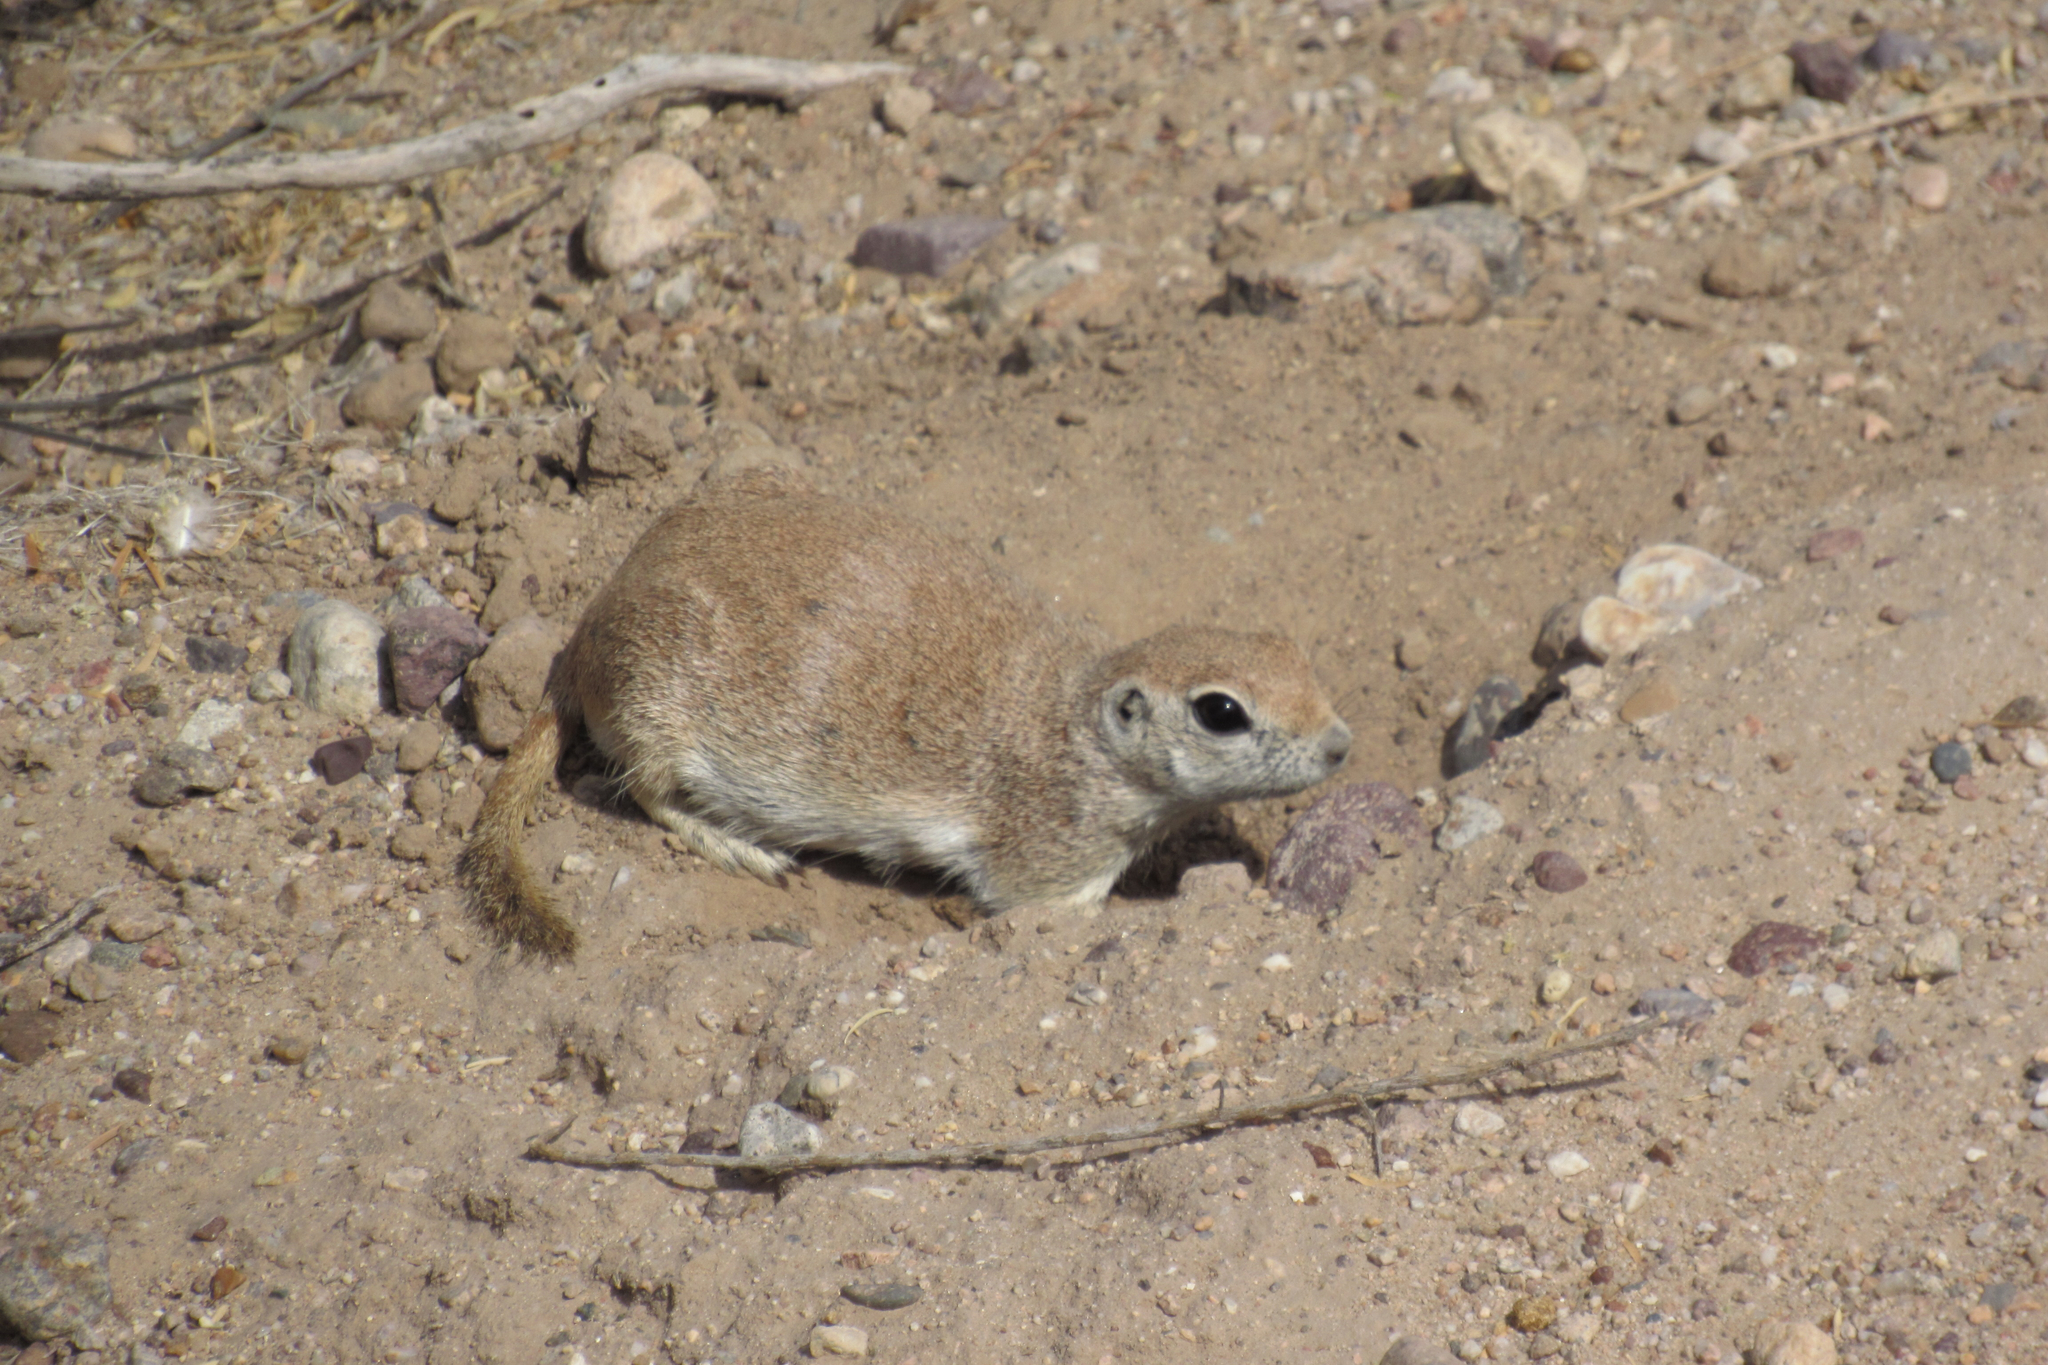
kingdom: Animalia
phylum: Chordata
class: Mammalia
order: Rodentia
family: Sciuridae
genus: Xerospermophilus
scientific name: Xerospermophilus tereticaudus
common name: Round-tailed ground squirrel
